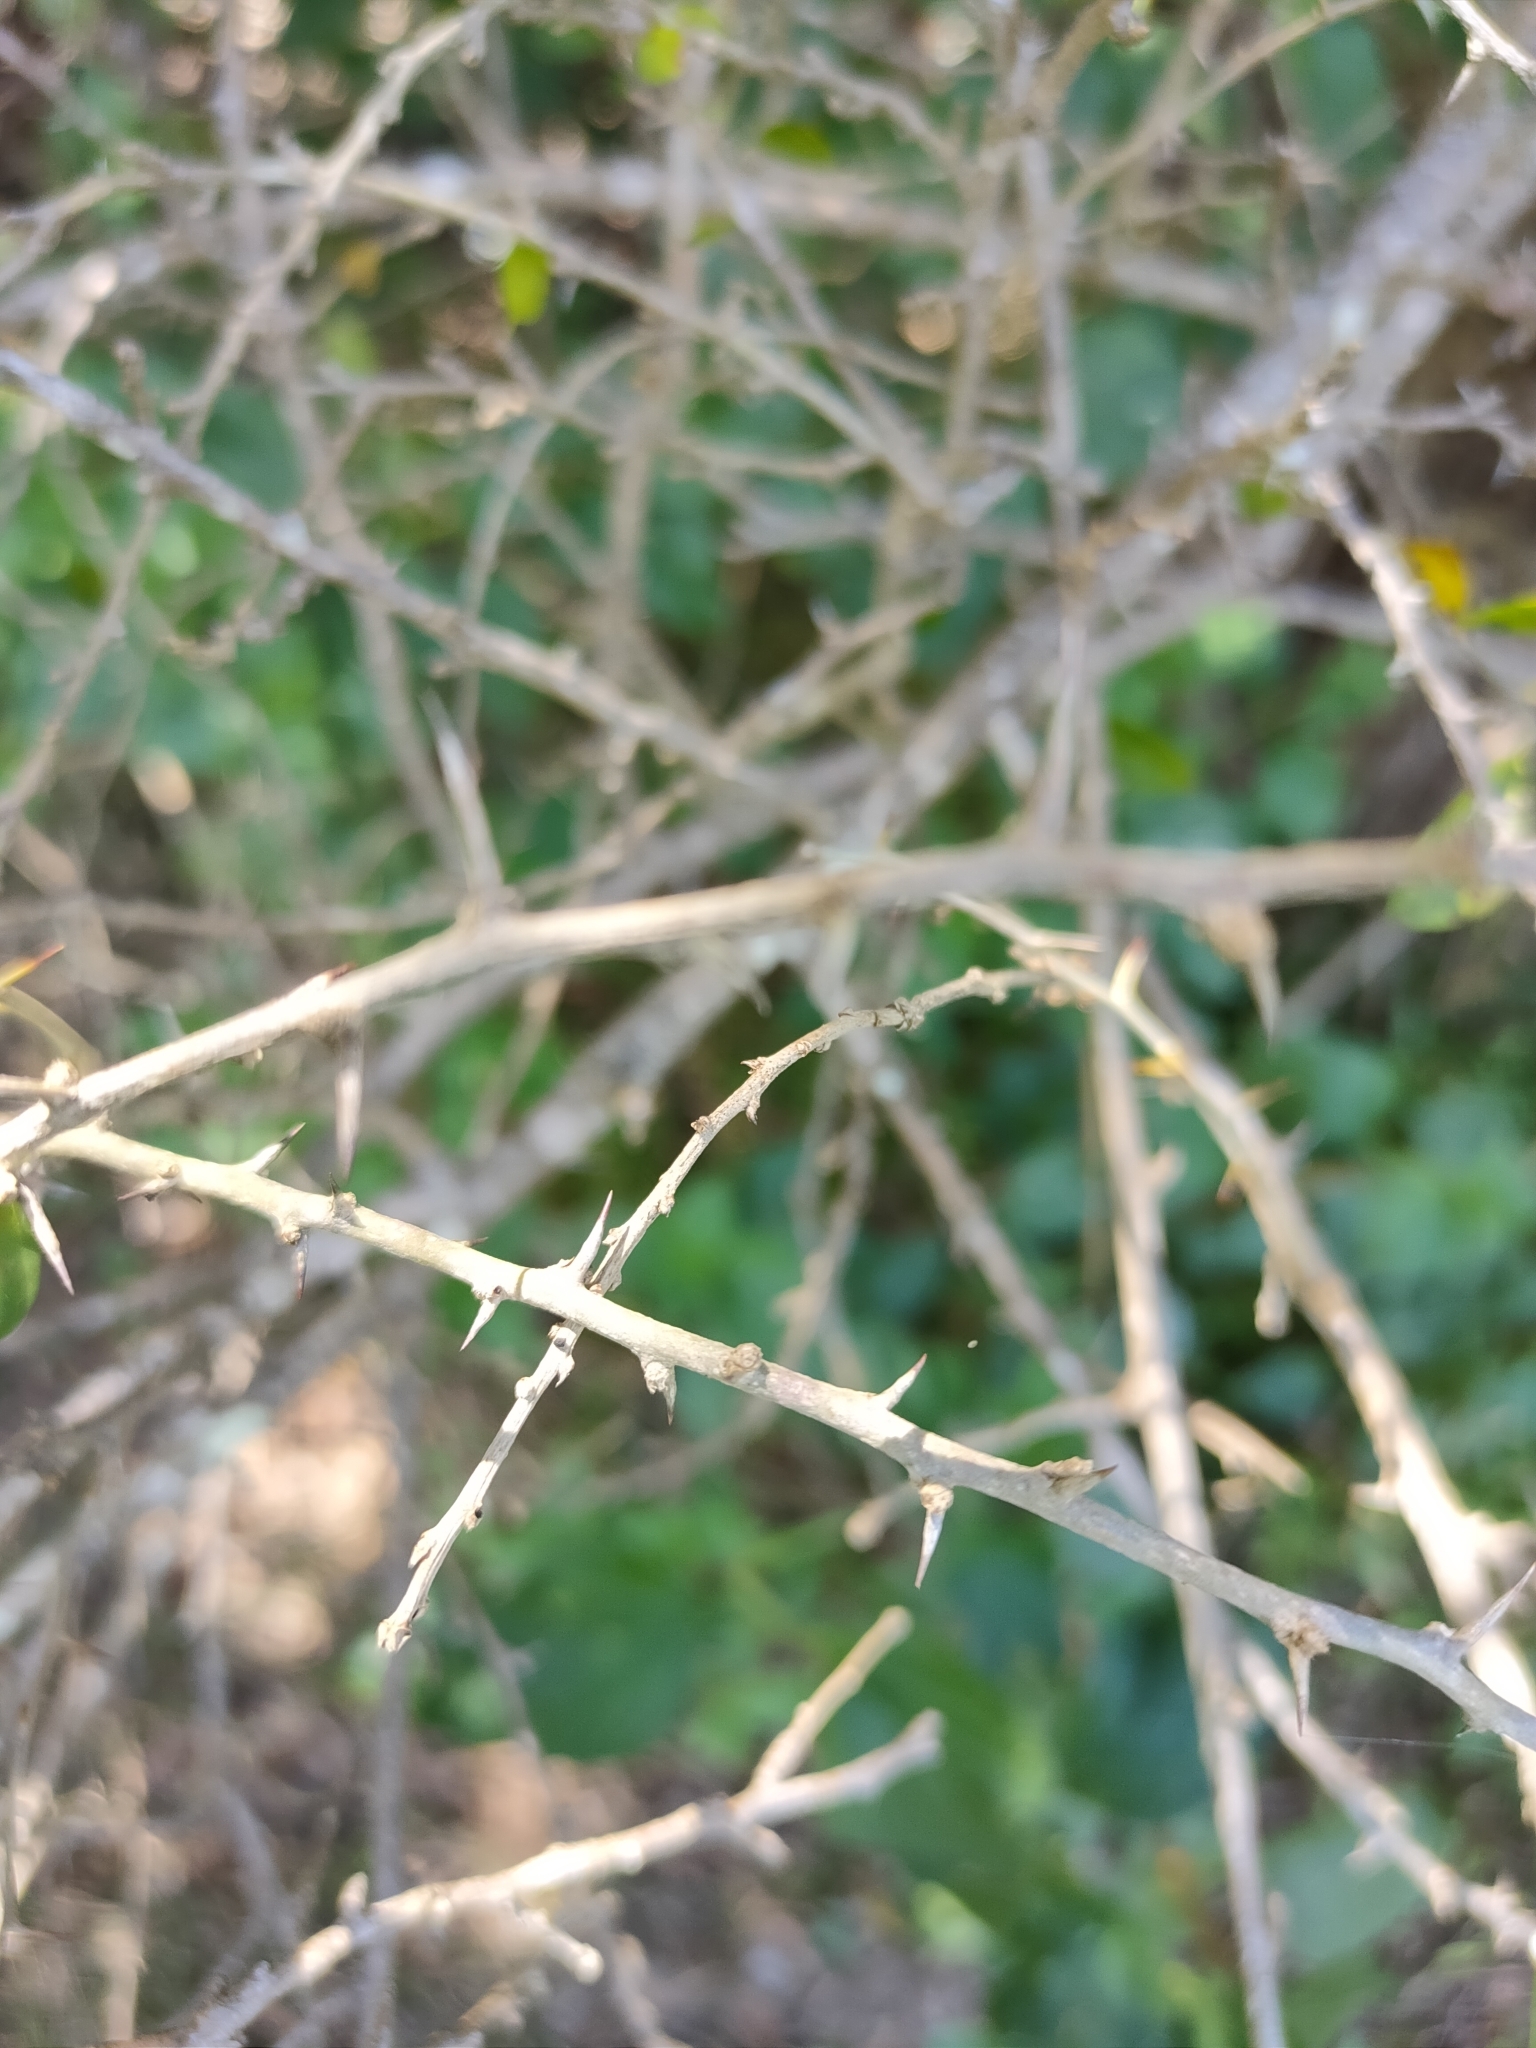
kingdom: Plantae
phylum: Tracheophyta
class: Magnoliopsida
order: Rosales
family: Moraceae
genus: Maclura
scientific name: Maclura cochinchinensis
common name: Cockspurthorn
